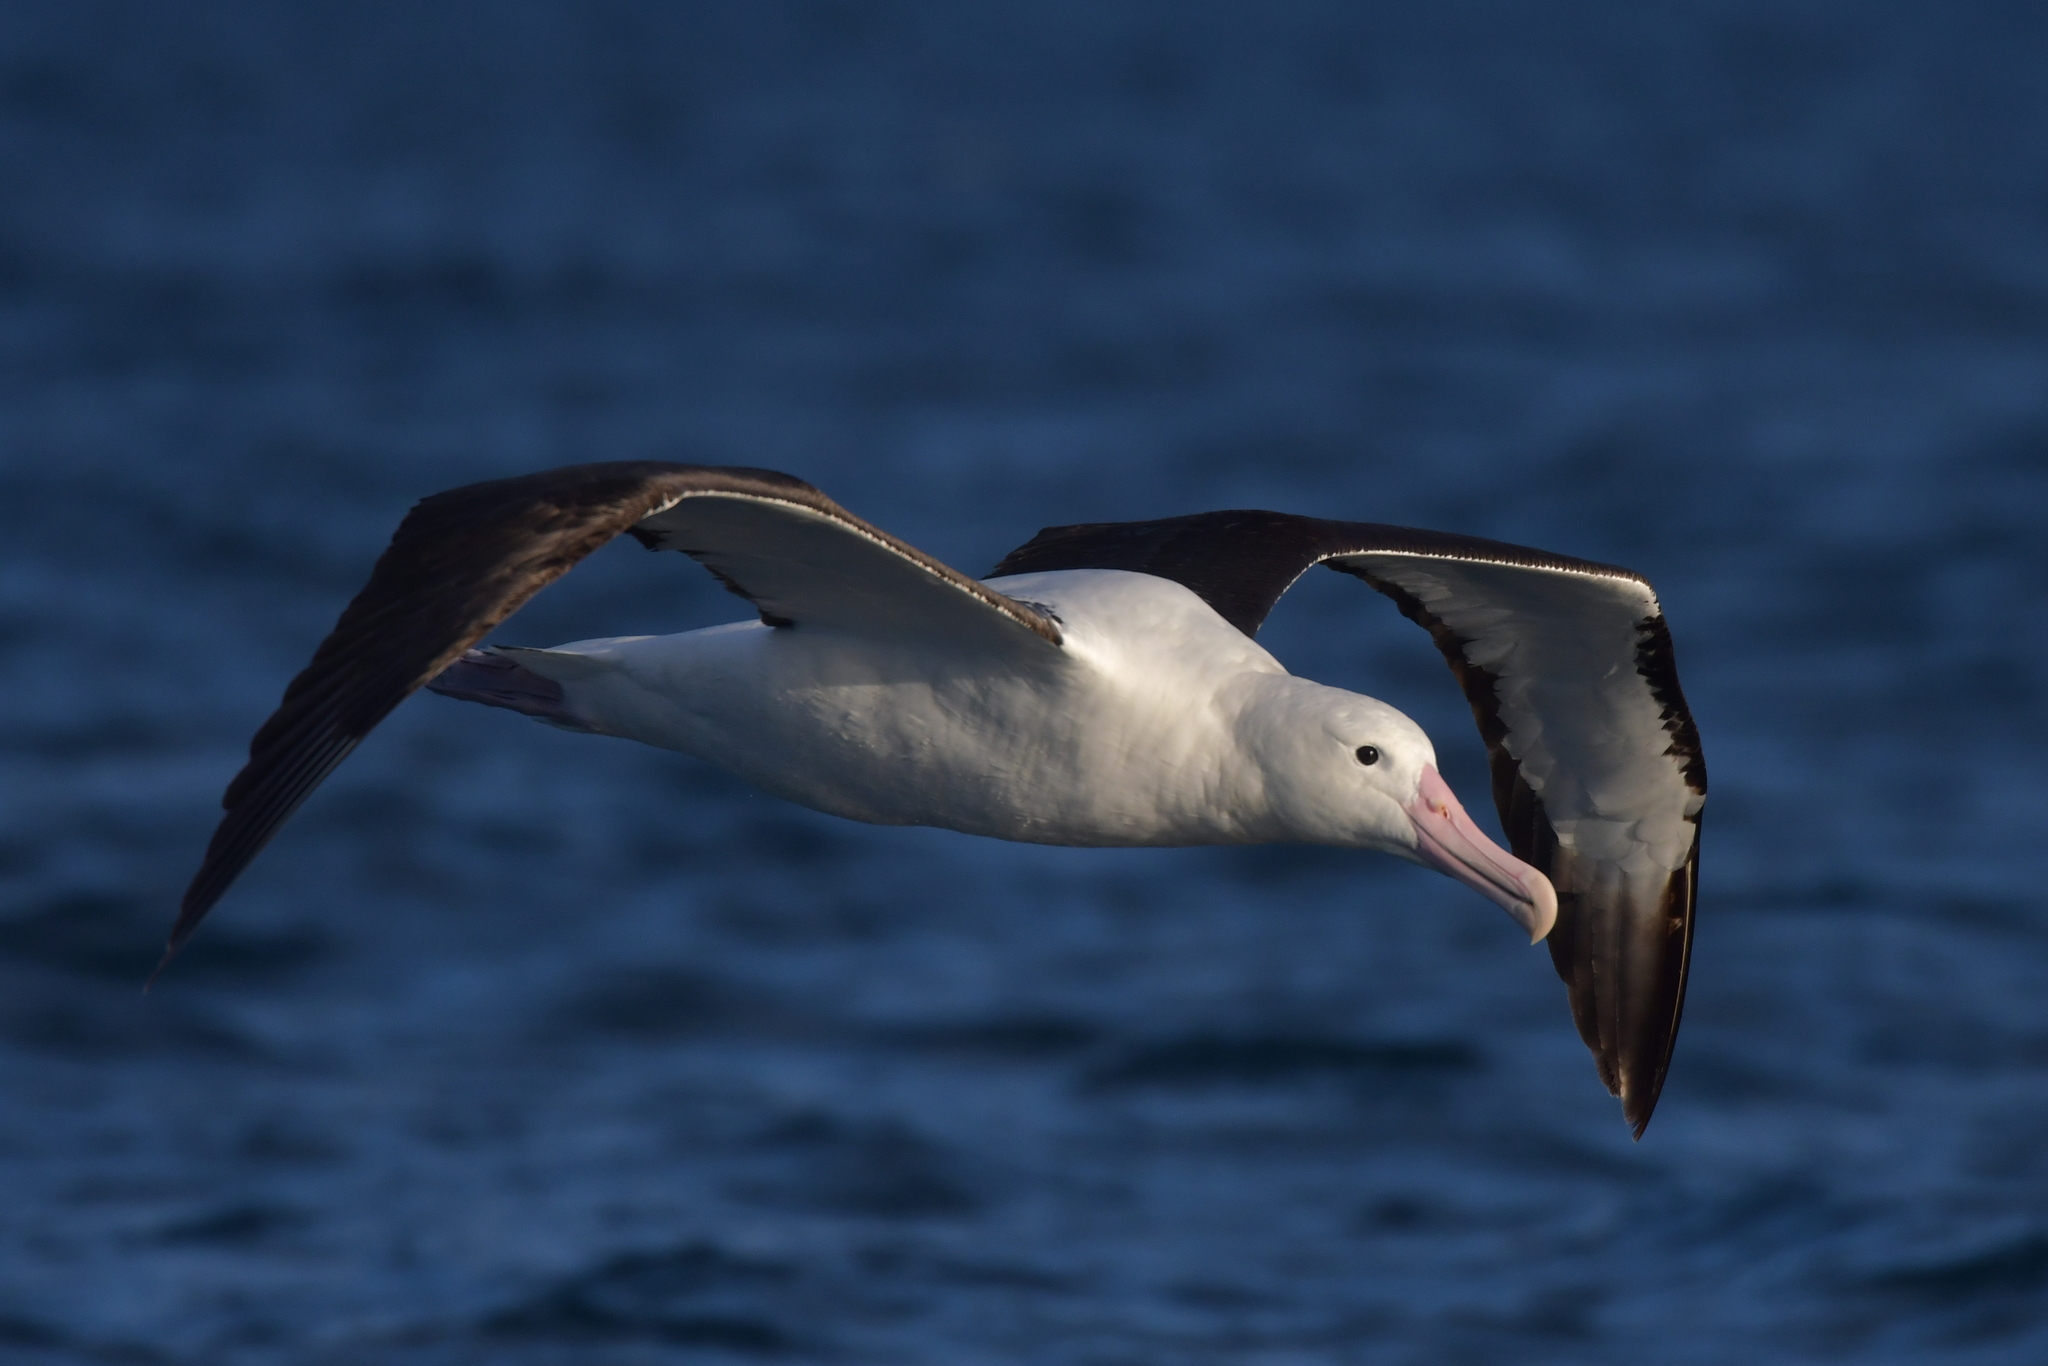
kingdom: Animalia
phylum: Chordata
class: Aves
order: Procellariiformes
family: Diomedeidae
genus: Diomedea
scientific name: Diomedea sanfordi
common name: Northern royal albatross
